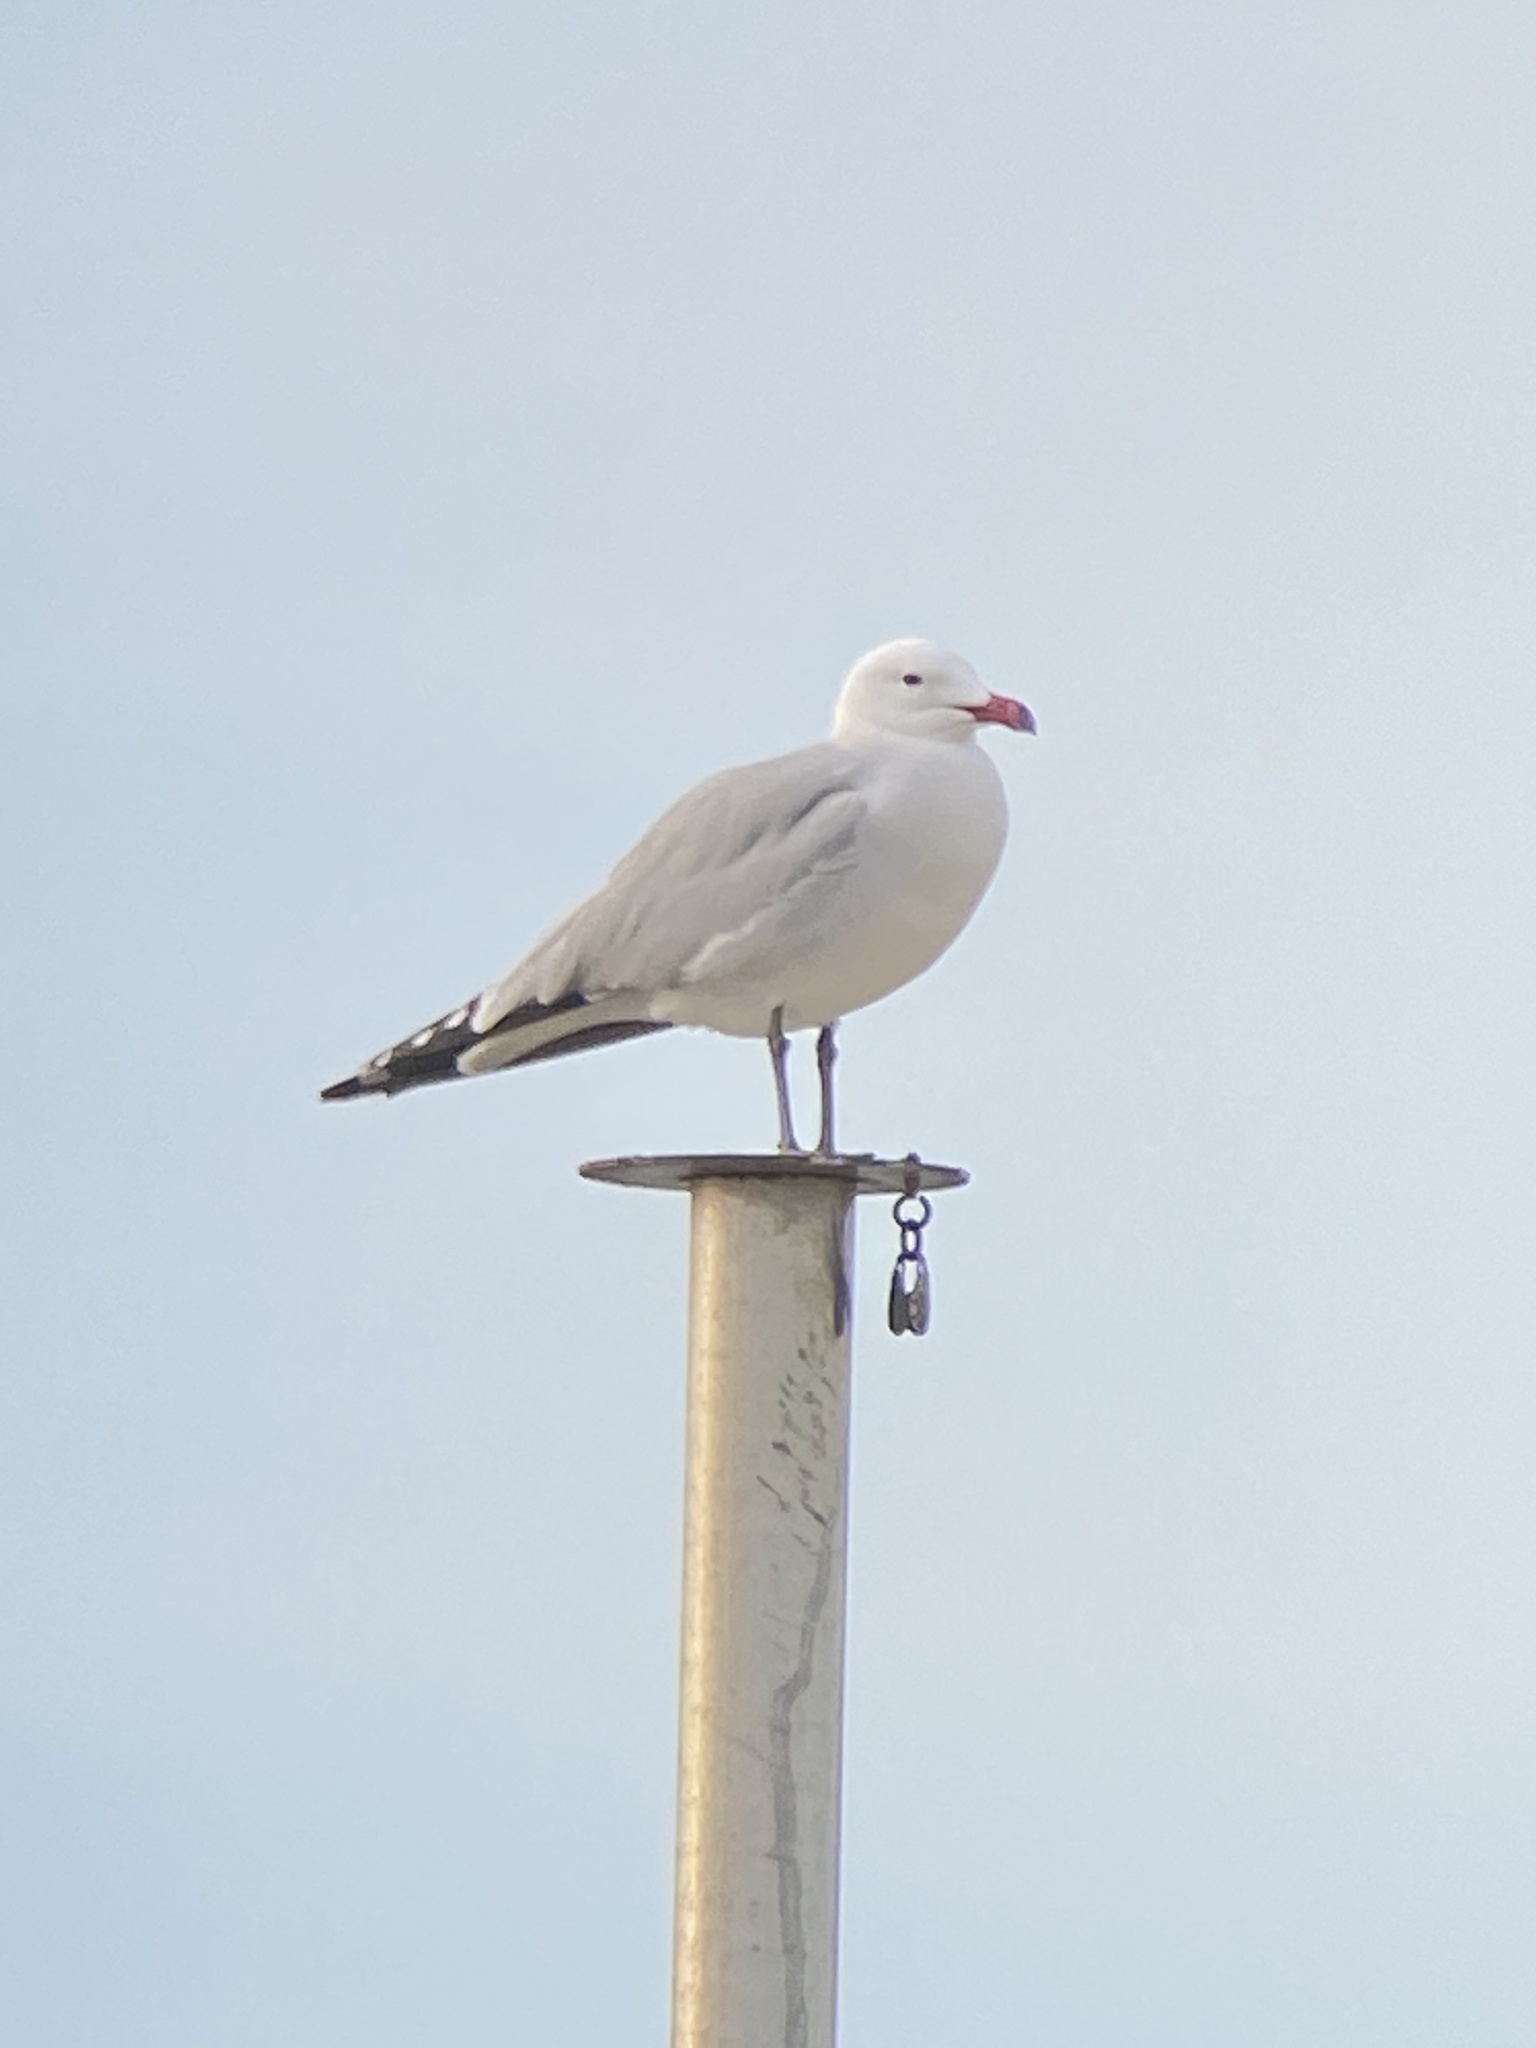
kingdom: Animalia
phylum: Chordata
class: Aves
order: Charadriiformes
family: Laridae
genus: Ichthyaetus
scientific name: Ichthyaetus audouinii
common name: Audouin's gull
